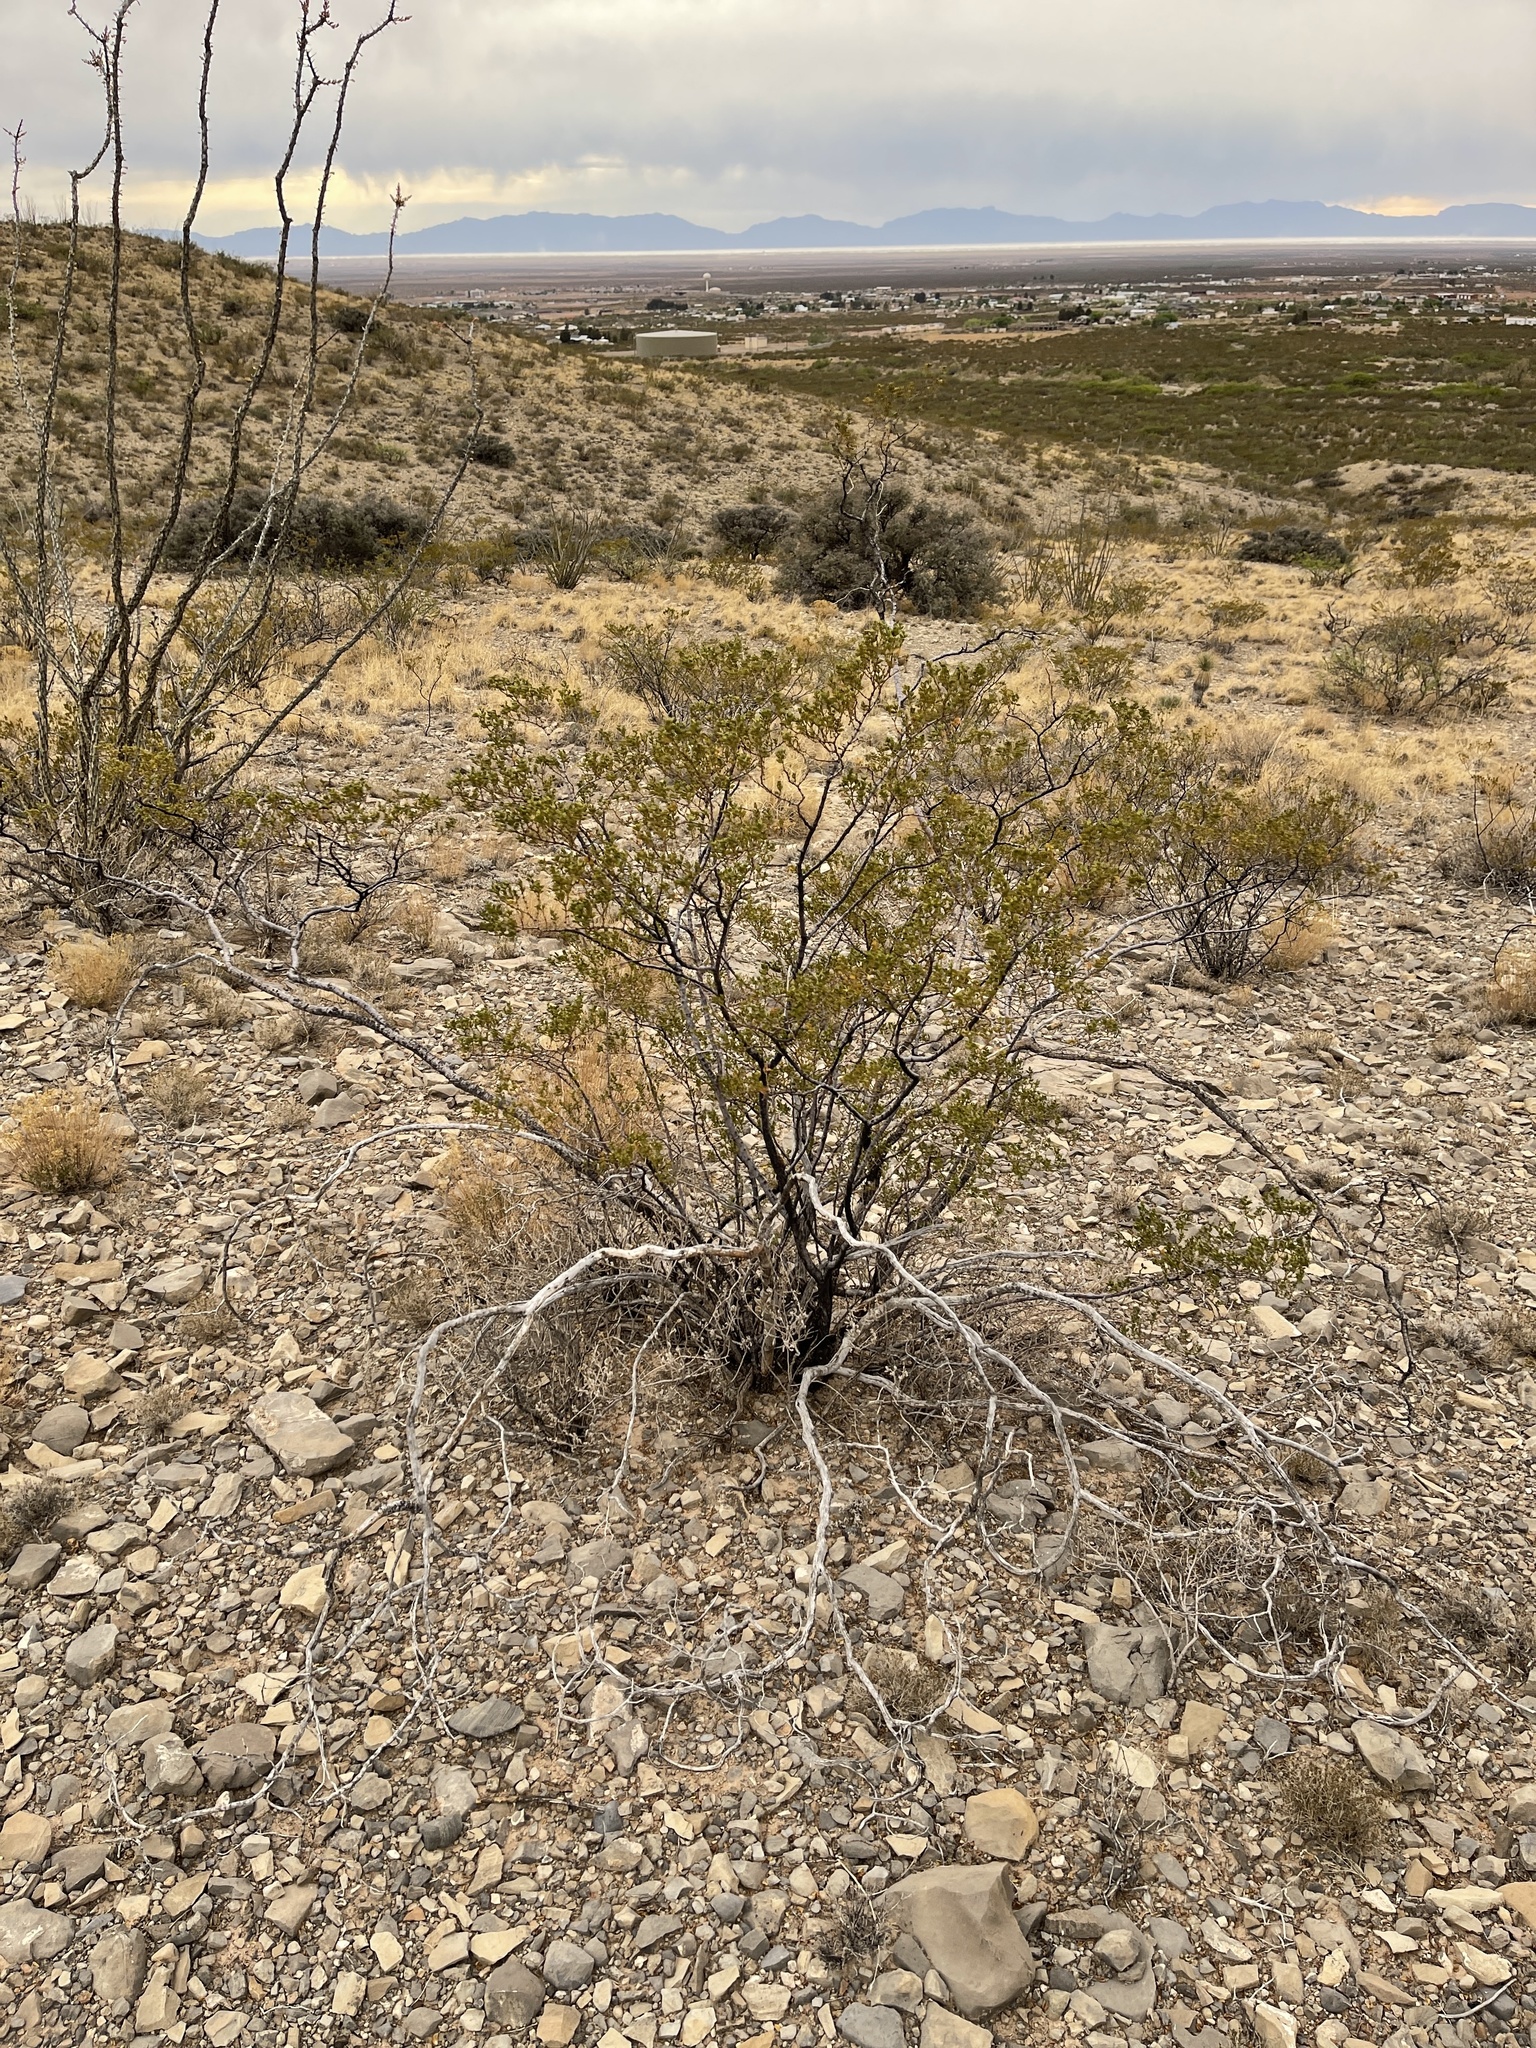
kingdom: Plantae
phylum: Tracheophyta
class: Magnoliopsida
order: Zygophyllales
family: Zygophyllaceae
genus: Larrea
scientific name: Larrea tridentata
